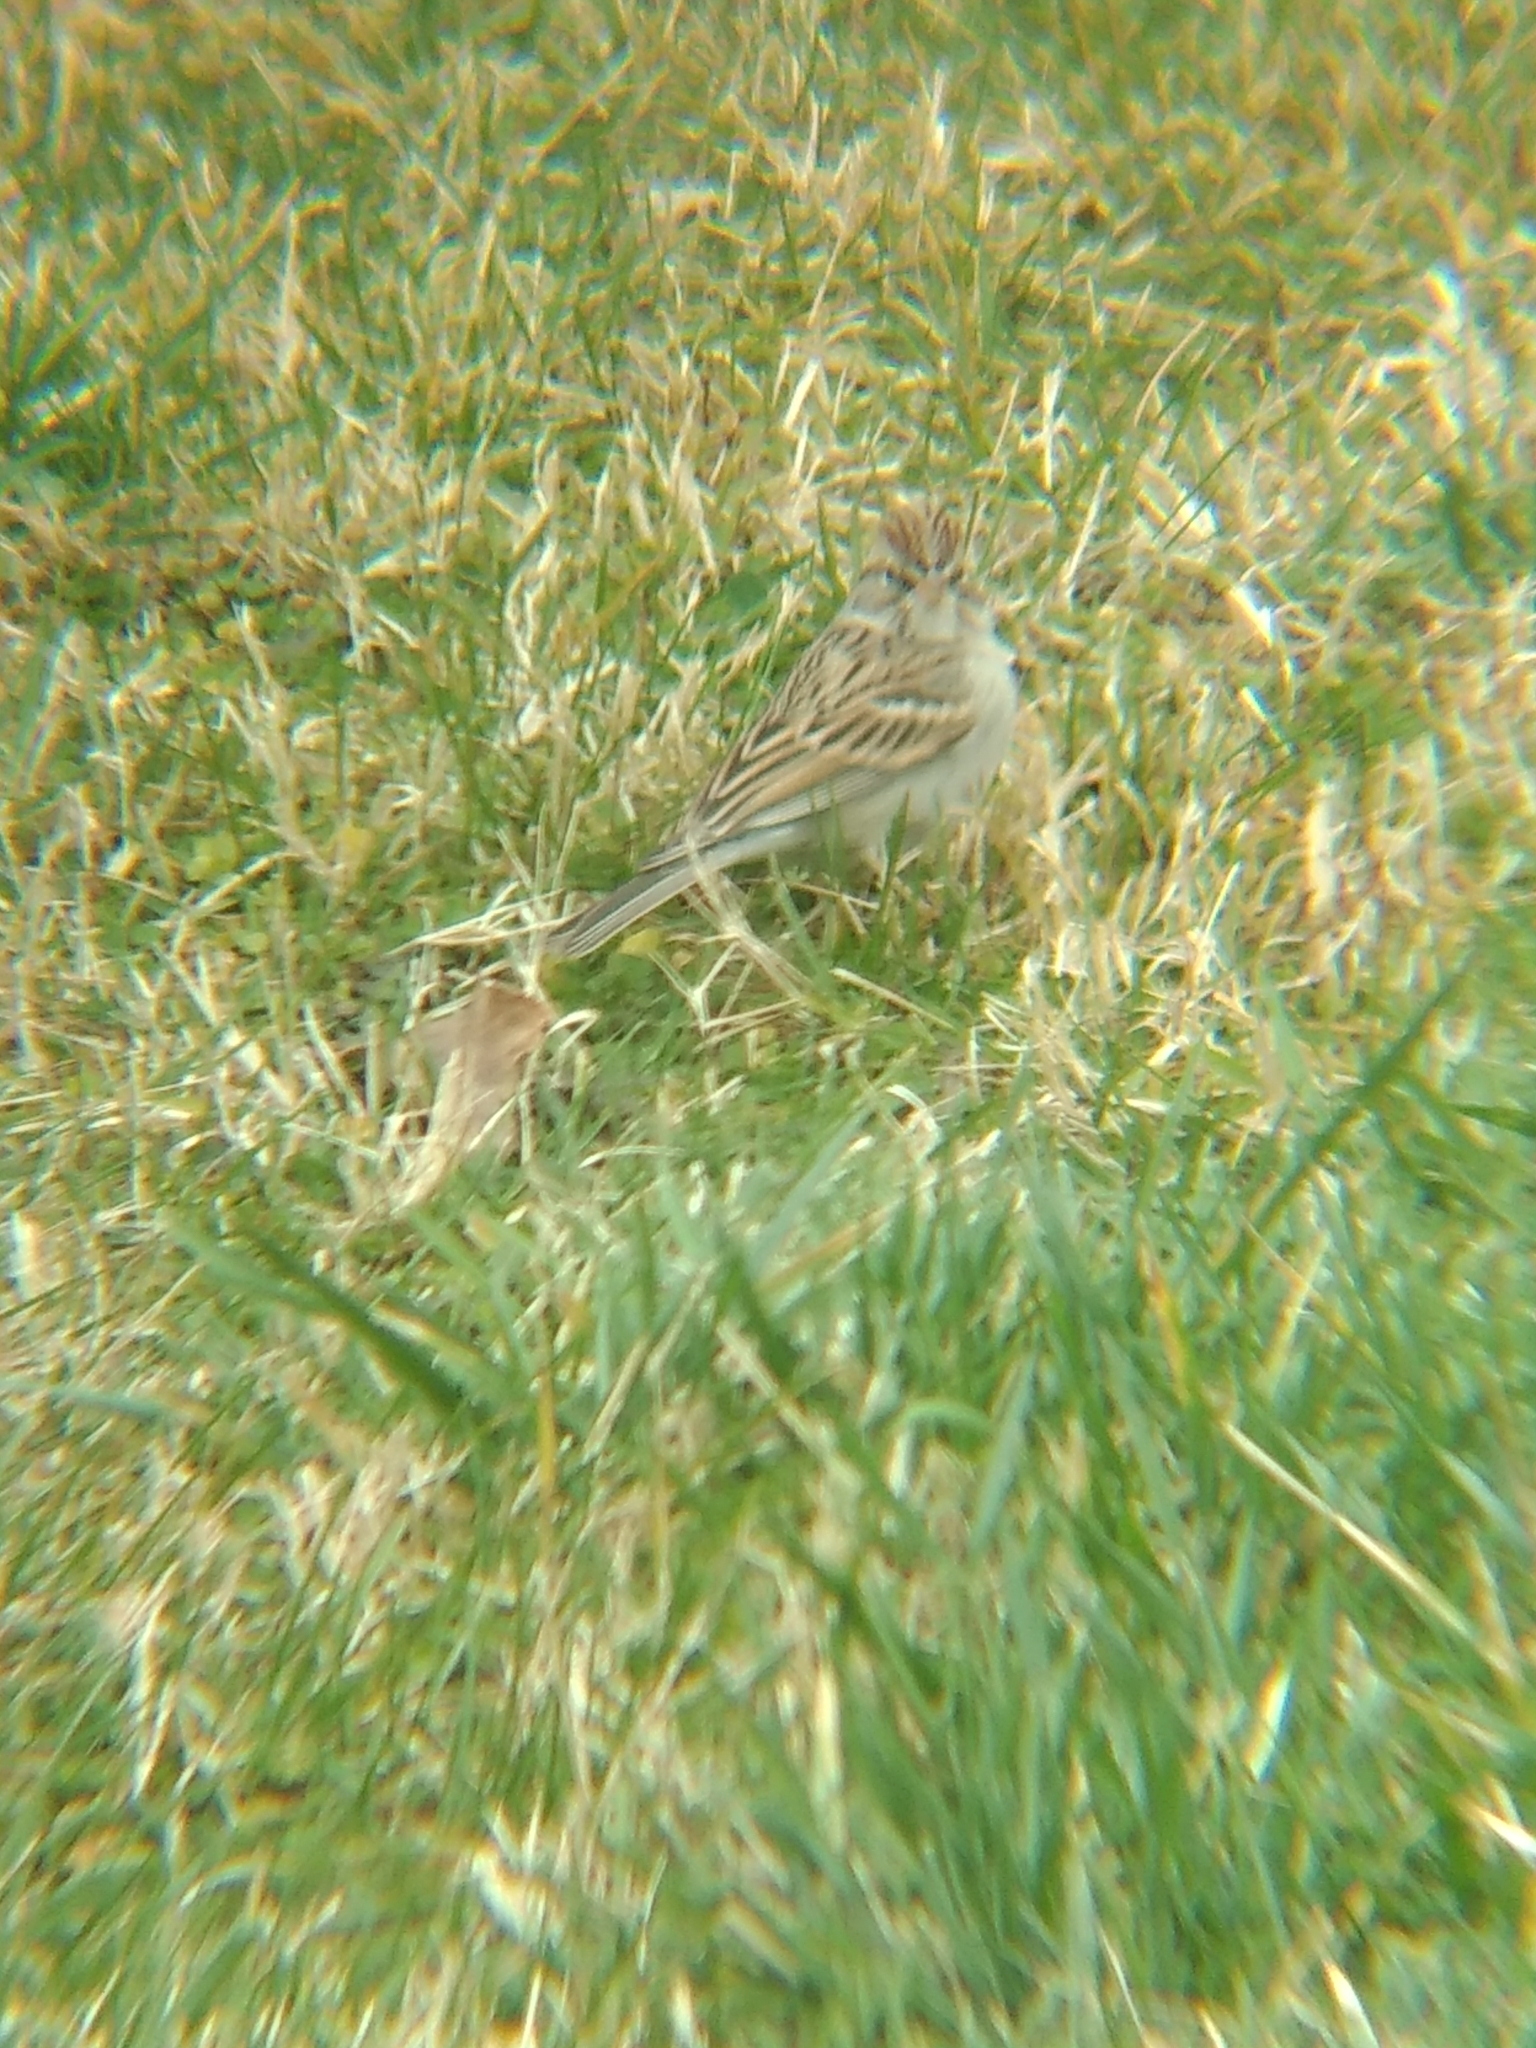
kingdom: Animalia
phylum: Chordata
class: Aves
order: Passeriformes
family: Passerellidae
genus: Spizella
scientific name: Spizella passerina
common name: Chipping sparrow
